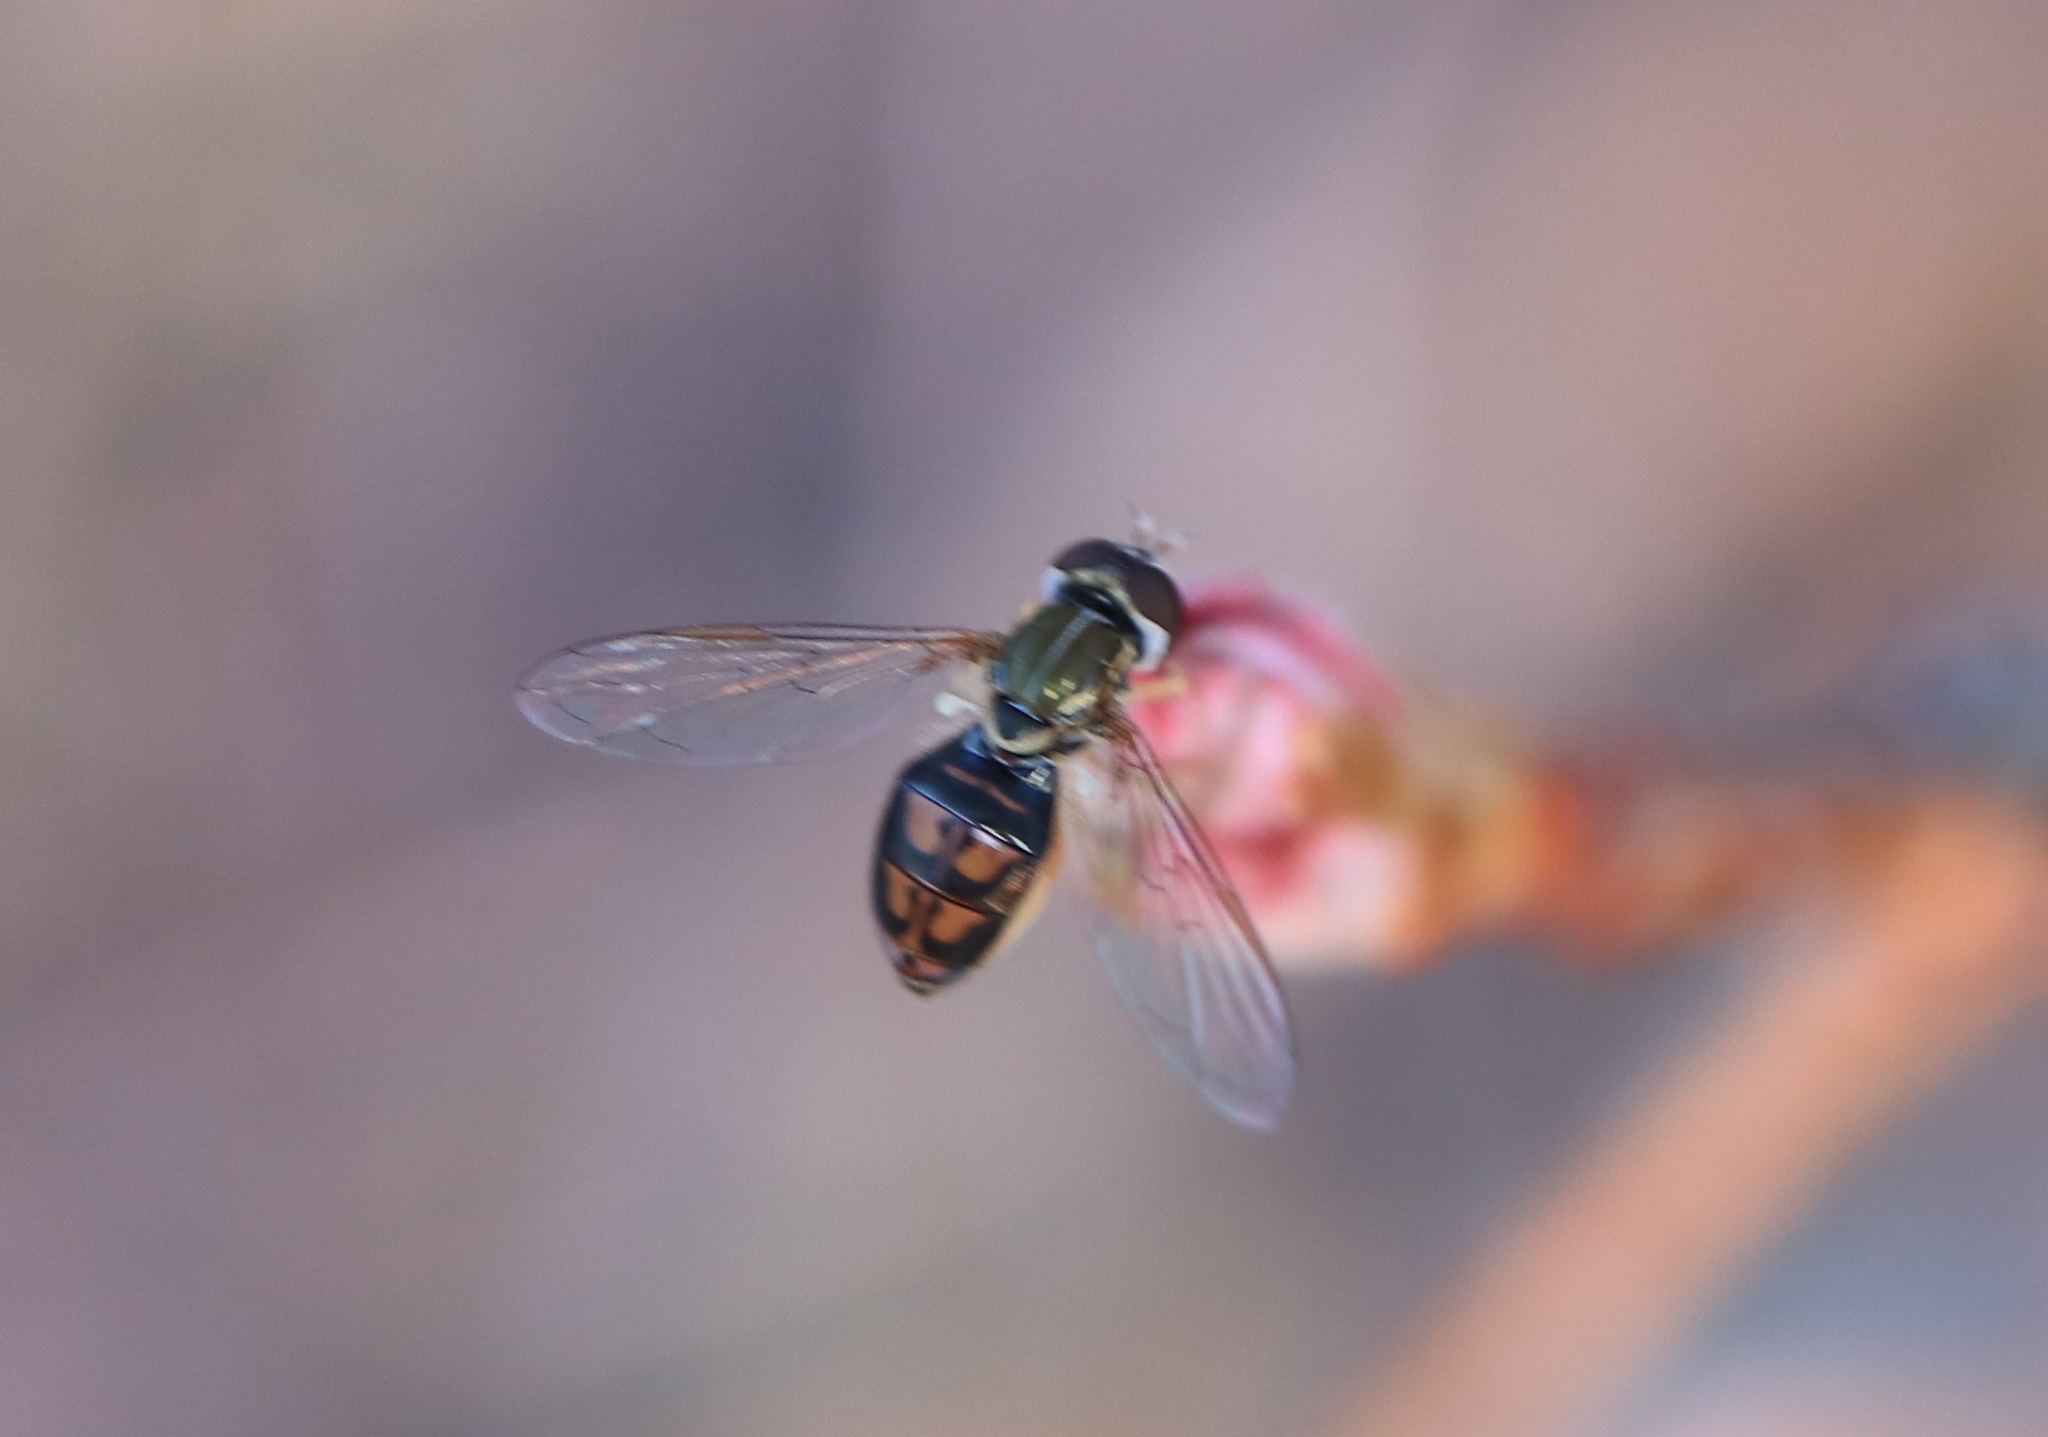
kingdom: Animalia
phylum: Arthropoda
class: Insecta
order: Diptera
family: Syrphidae
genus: Toxomerus
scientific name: Toxomerus marginatus
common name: Syrphid fly
